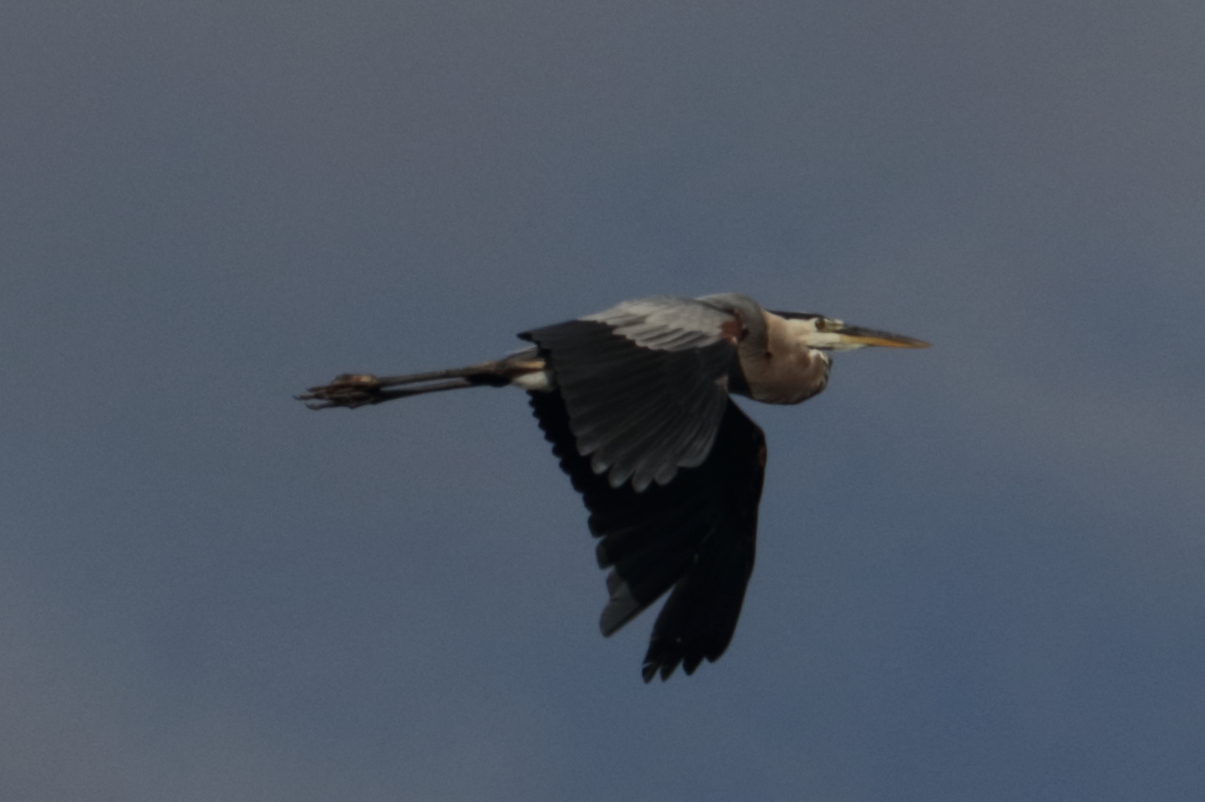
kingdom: Animalia
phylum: Chordata
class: Aves
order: Pelecaniformes
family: Ardeidae
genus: Ardea
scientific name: Ardea herodias
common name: Great blue heron
